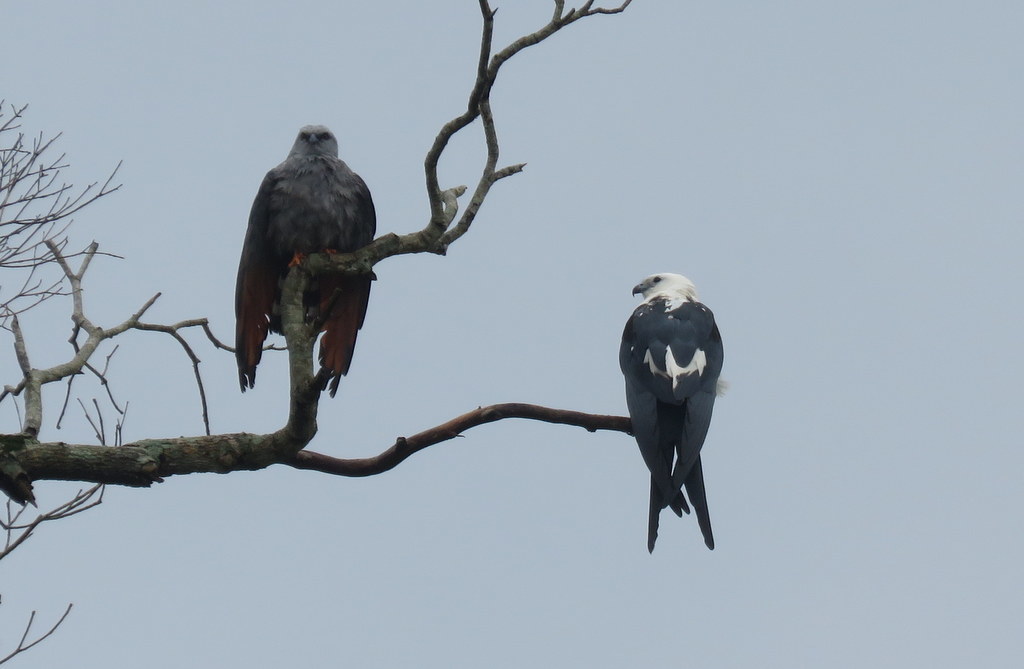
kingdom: Animalia
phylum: Chordata
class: Aves
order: Accipitriformes
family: Accipitridae
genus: Elanoides
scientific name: Elanoides forficatus
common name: Swallow-tailed kite
